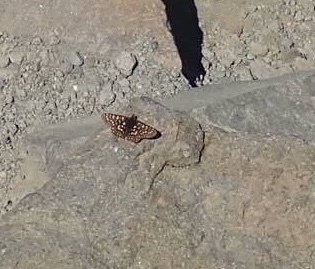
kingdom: Animalia
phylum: Arthropoda
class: Insecta
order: Lepidoptera
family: Nymphalidae
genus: Occidryas
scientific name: Occidryas colon
